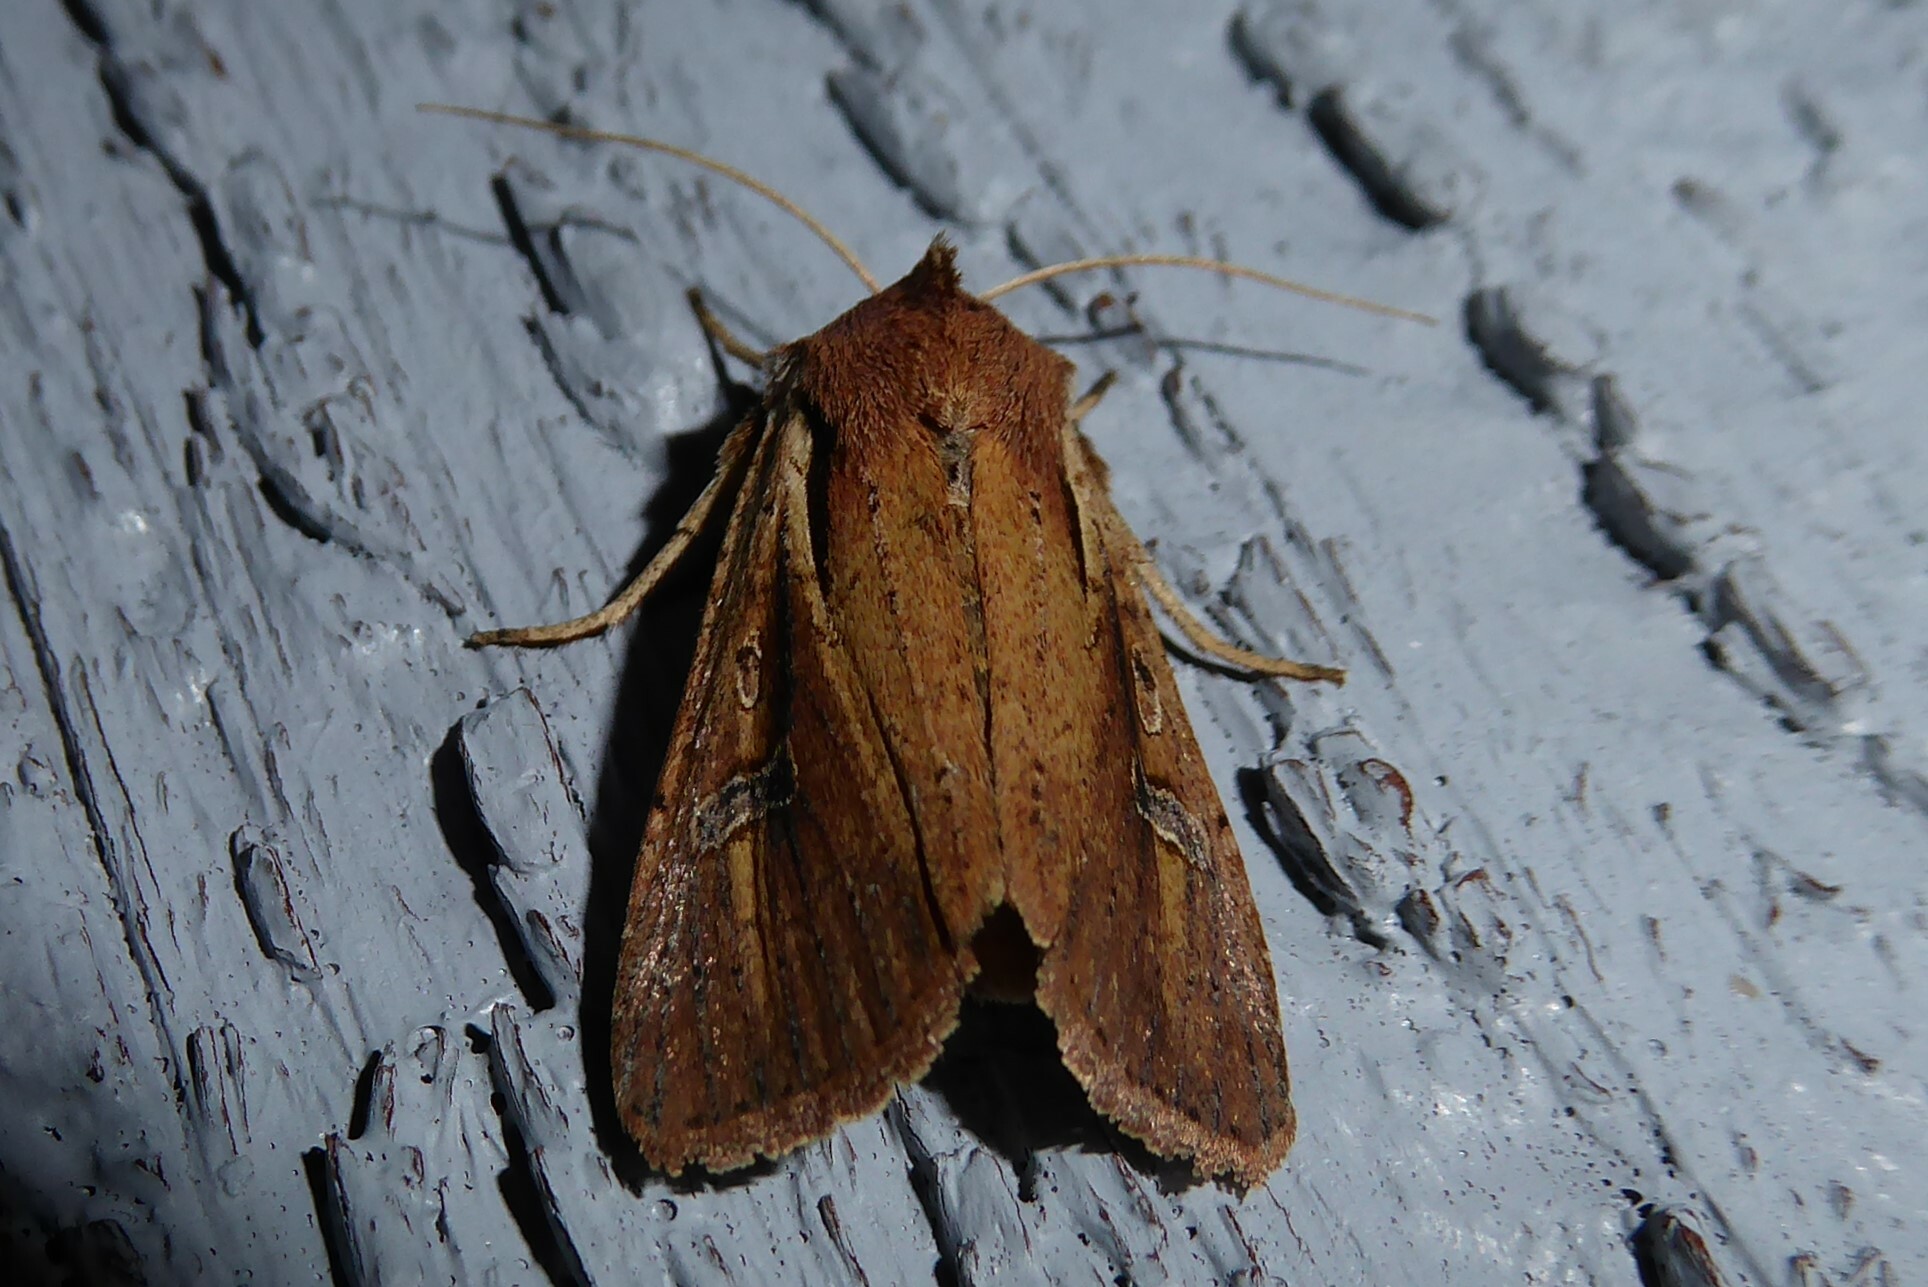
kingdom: Animalia
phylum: Arthropoda
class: Insecta
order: Lepidoptera
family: Noctuidae
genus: Ichneutica
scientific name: Ichneutica atristriga
